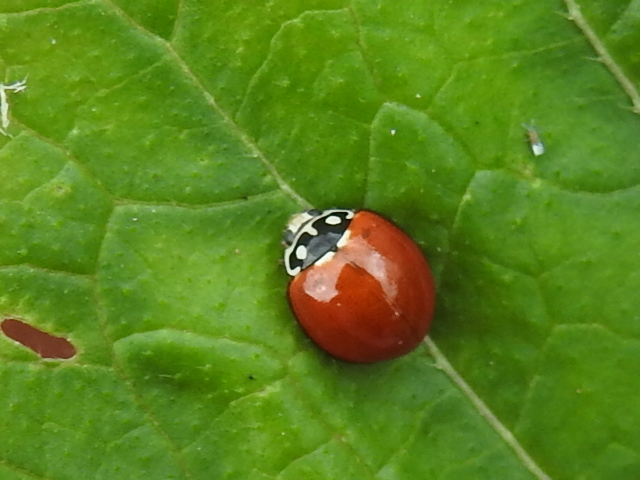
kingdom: Animalia
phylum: Arthropoda
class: Insecta
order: Coleoptera
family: Coccinellidae
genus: Cycloneda
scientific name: Cycloneda sanguinea
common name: Ladybird beetle
